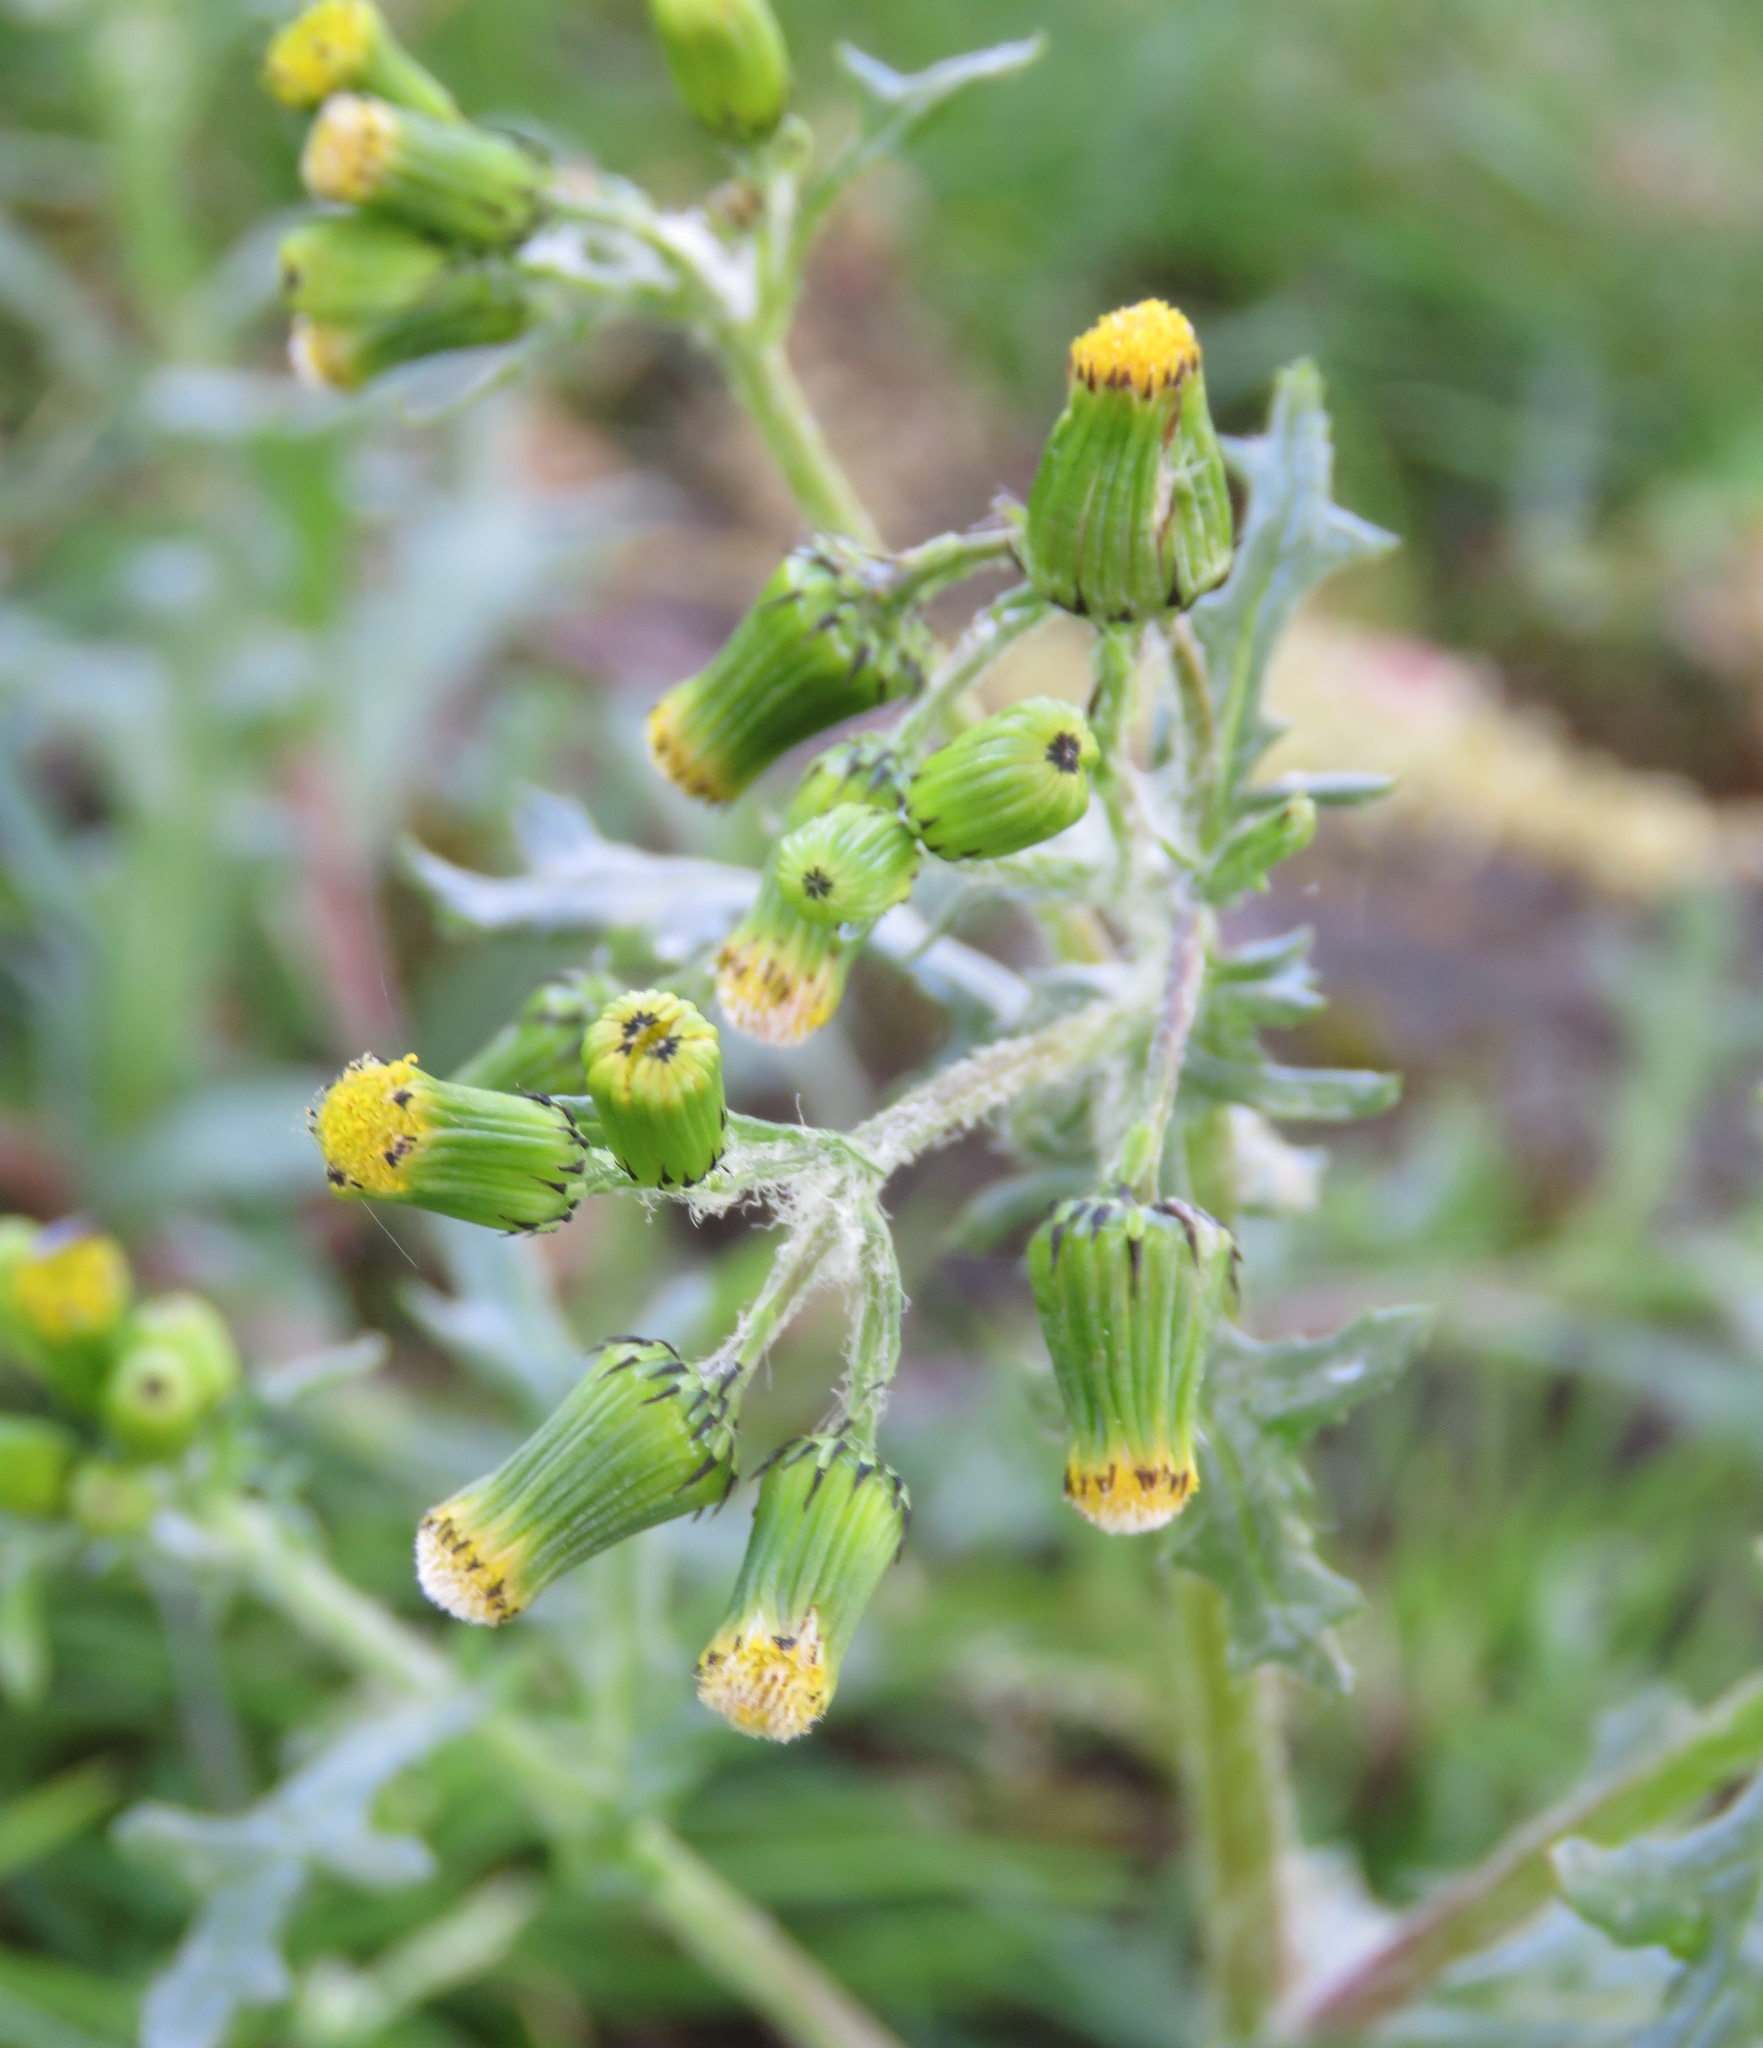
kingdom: Plantae
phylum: Tracheophyta
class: Magnoliopsida
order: Asterales
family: Asteraceae
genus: Senecio
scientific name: Senecio vulgaris
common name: Old-man-in-the-spring
